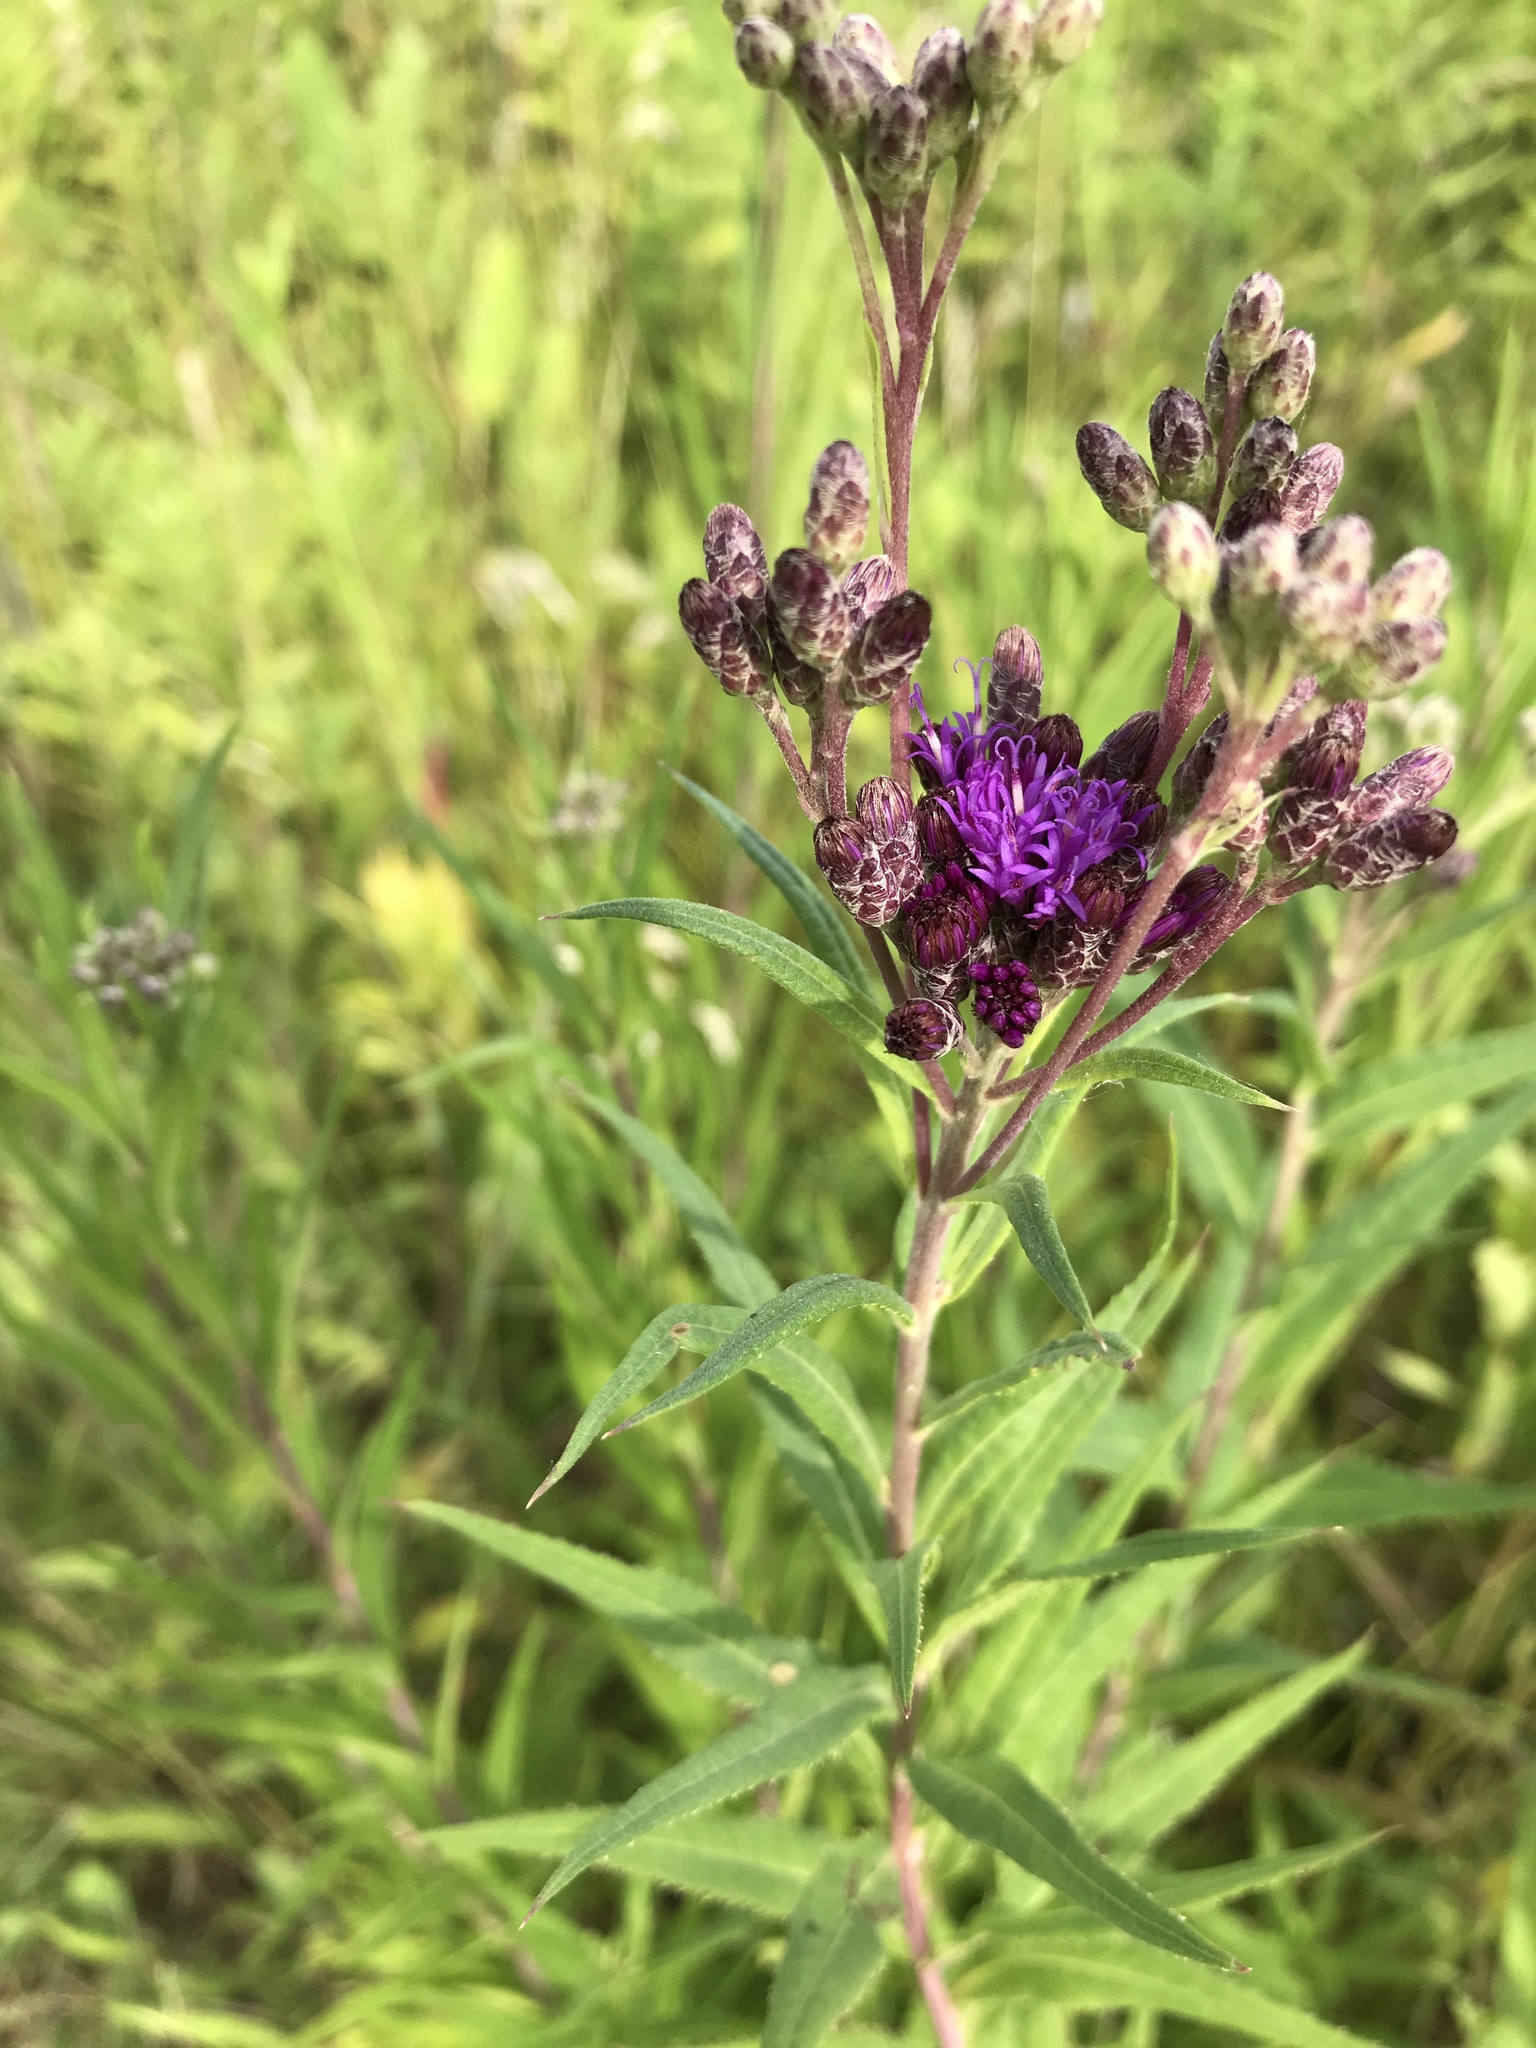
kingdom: Plantae
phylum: Tracheophyta
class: Magnoliopsida
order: Asterales
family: Asteraceae
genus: Vernonia
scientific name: Vernonia fasciculata
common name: Fascicled ironweed
